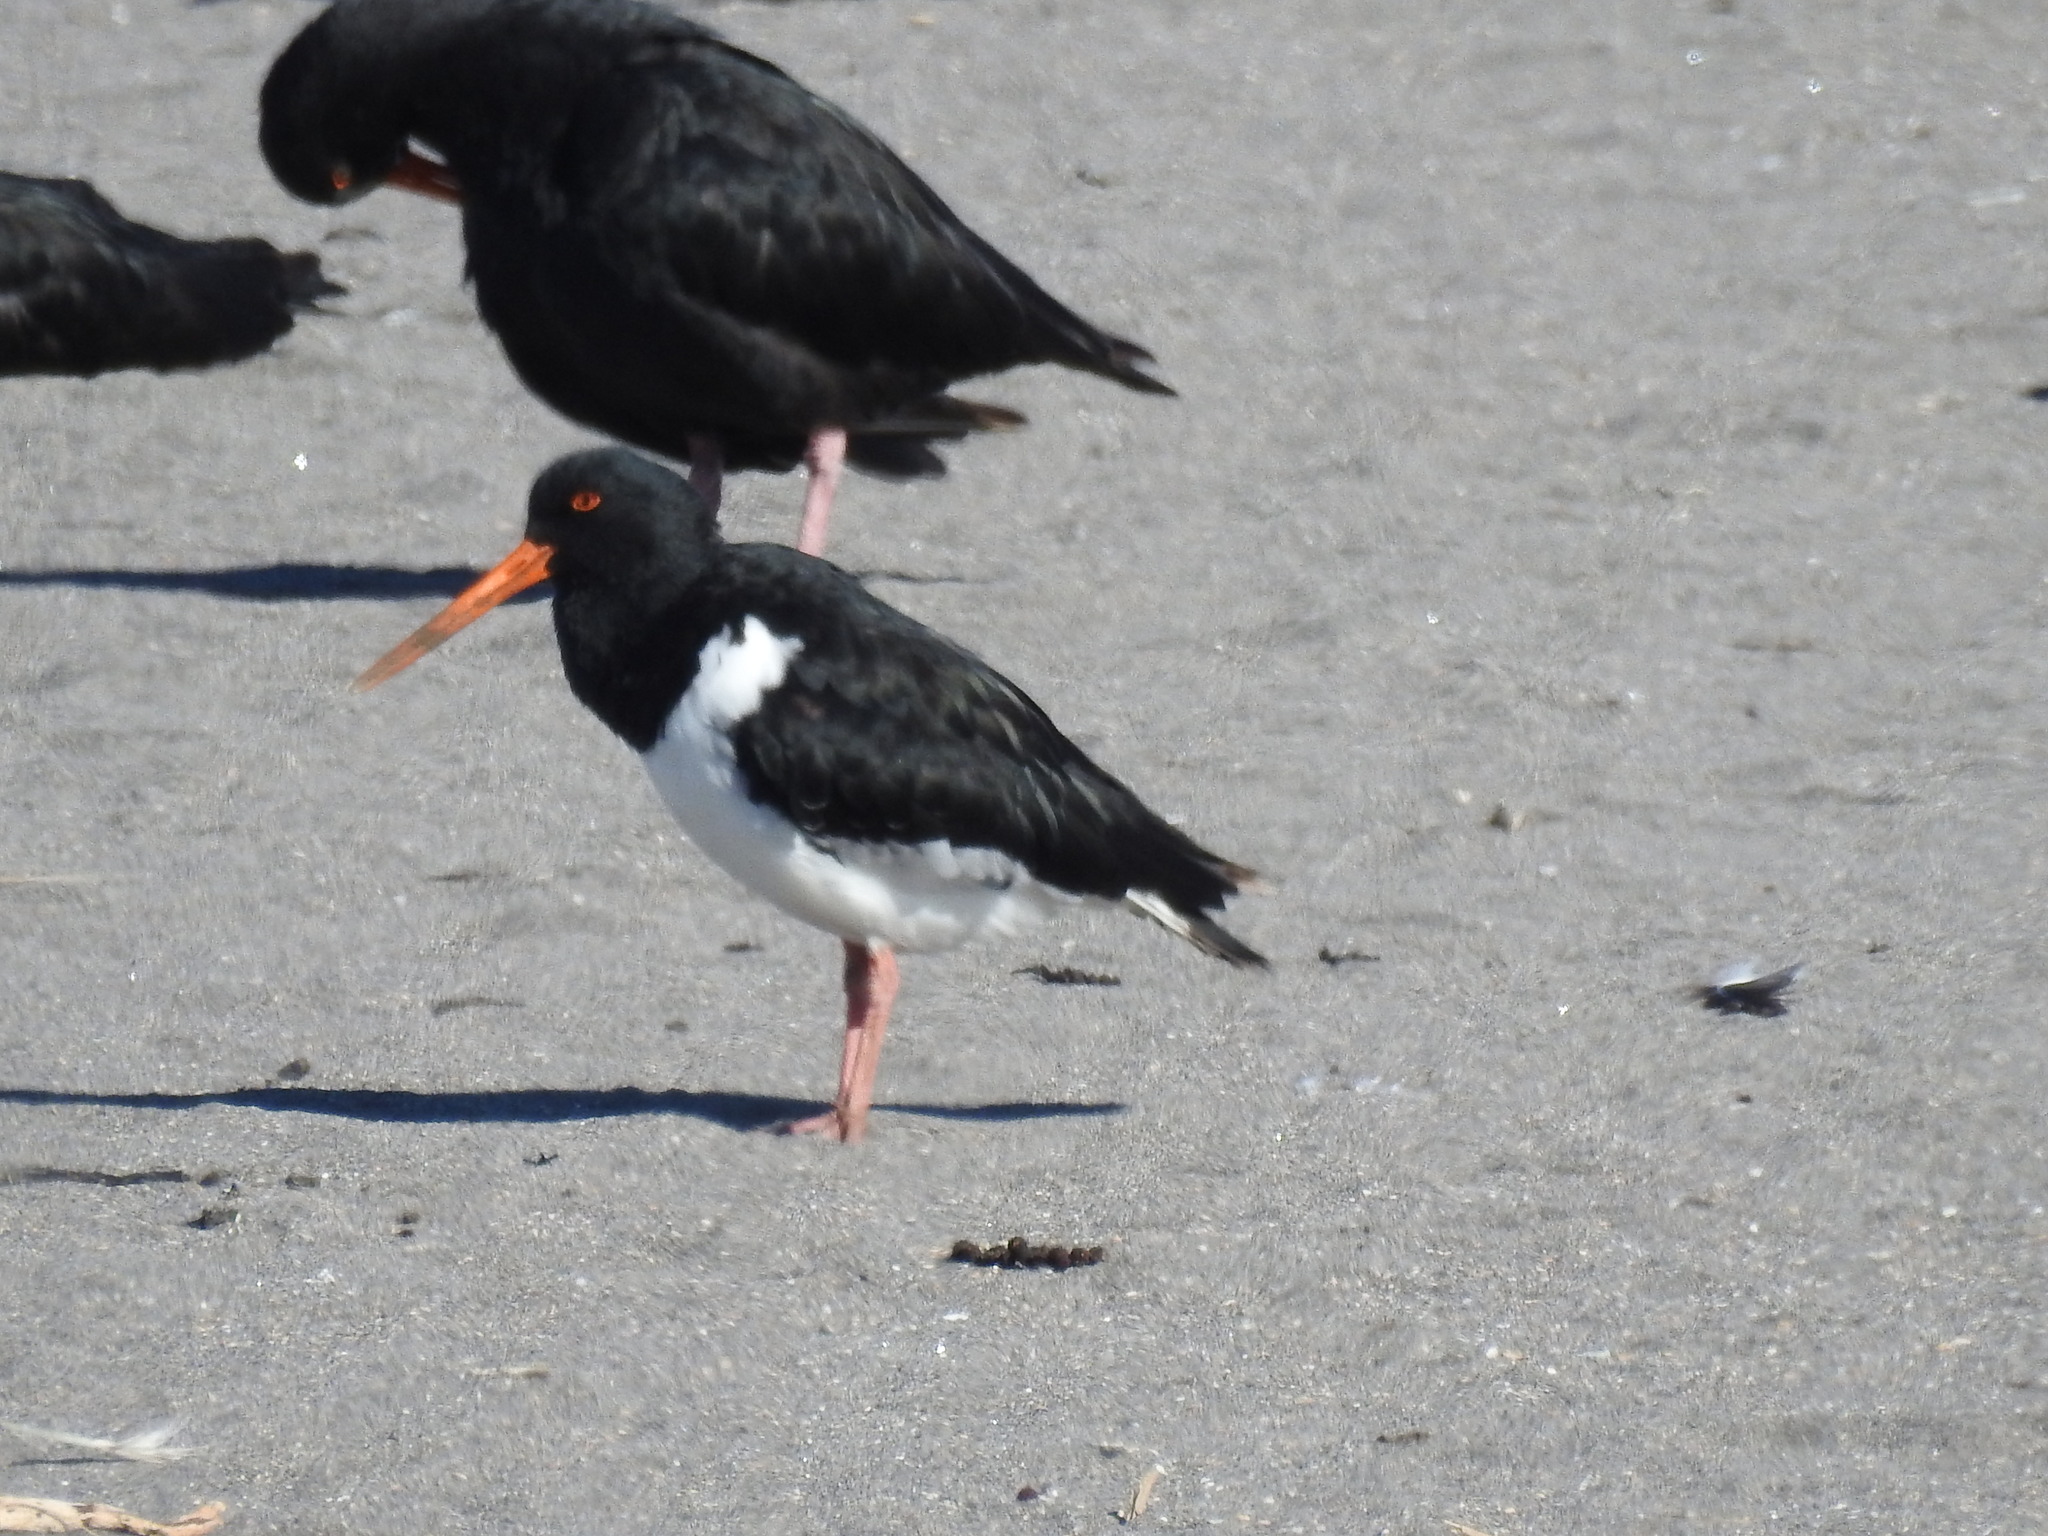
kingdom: Animalia
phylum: Chordata
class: Aves
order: Charadriiformes
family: Haematopodidae
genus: Haematopus
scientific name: Haematopus finschi
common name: South island oystercatcher
